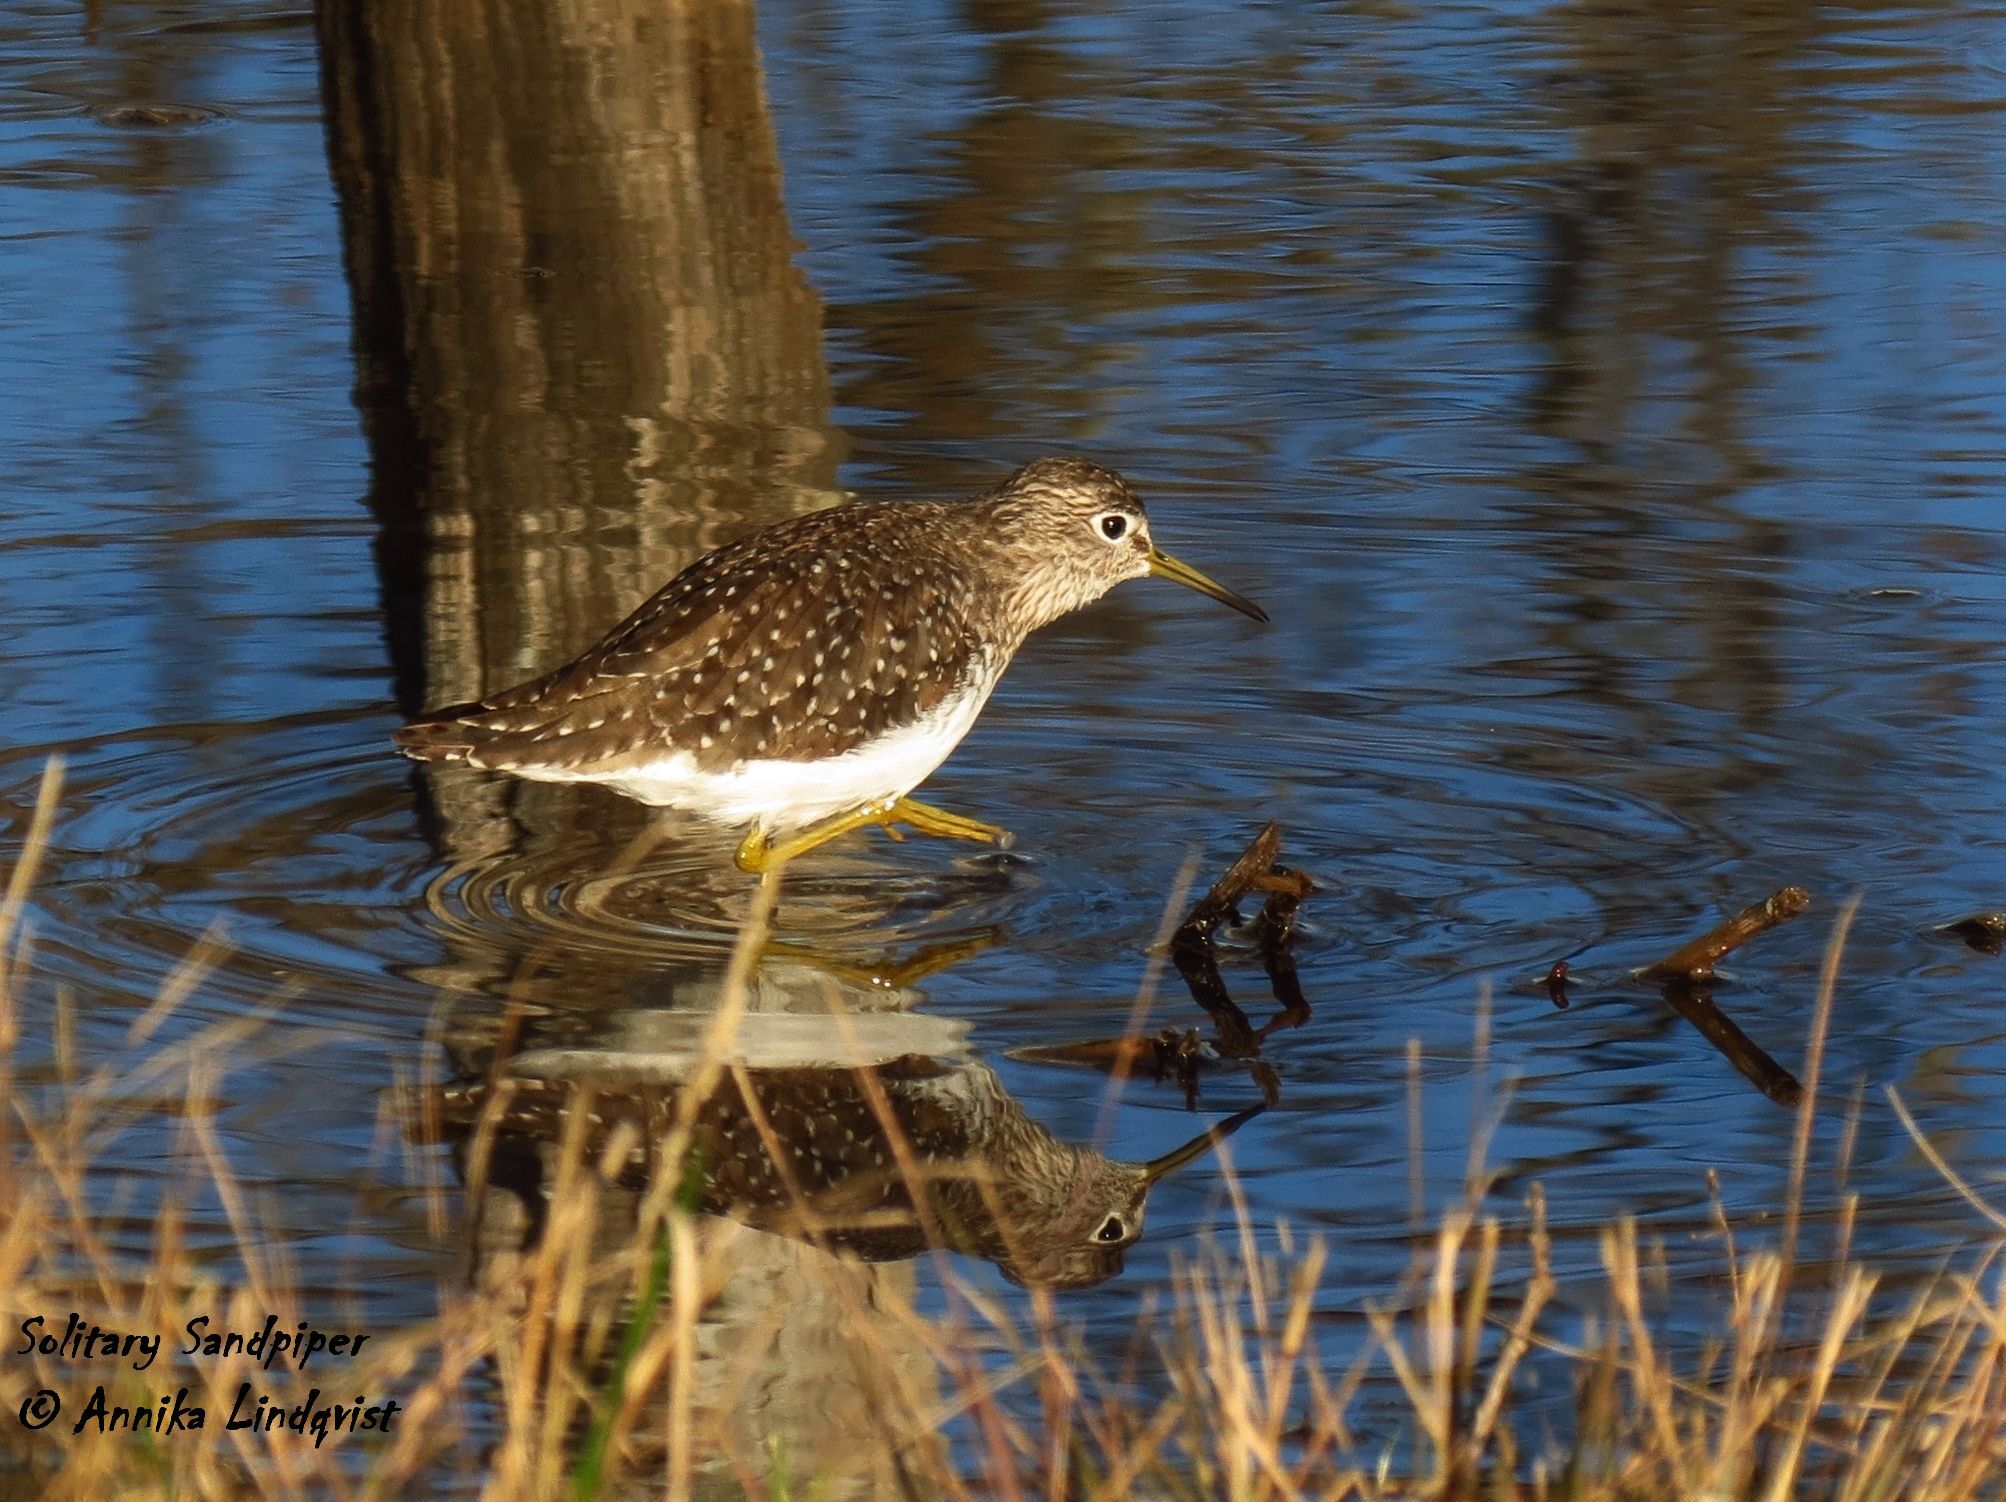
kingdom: Animalia
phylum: Chordata
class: Aves
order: Charadriiformes
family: Scolopacidae
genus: Tringa
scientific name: Tringa solitaria
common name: Solitary sandpiper
